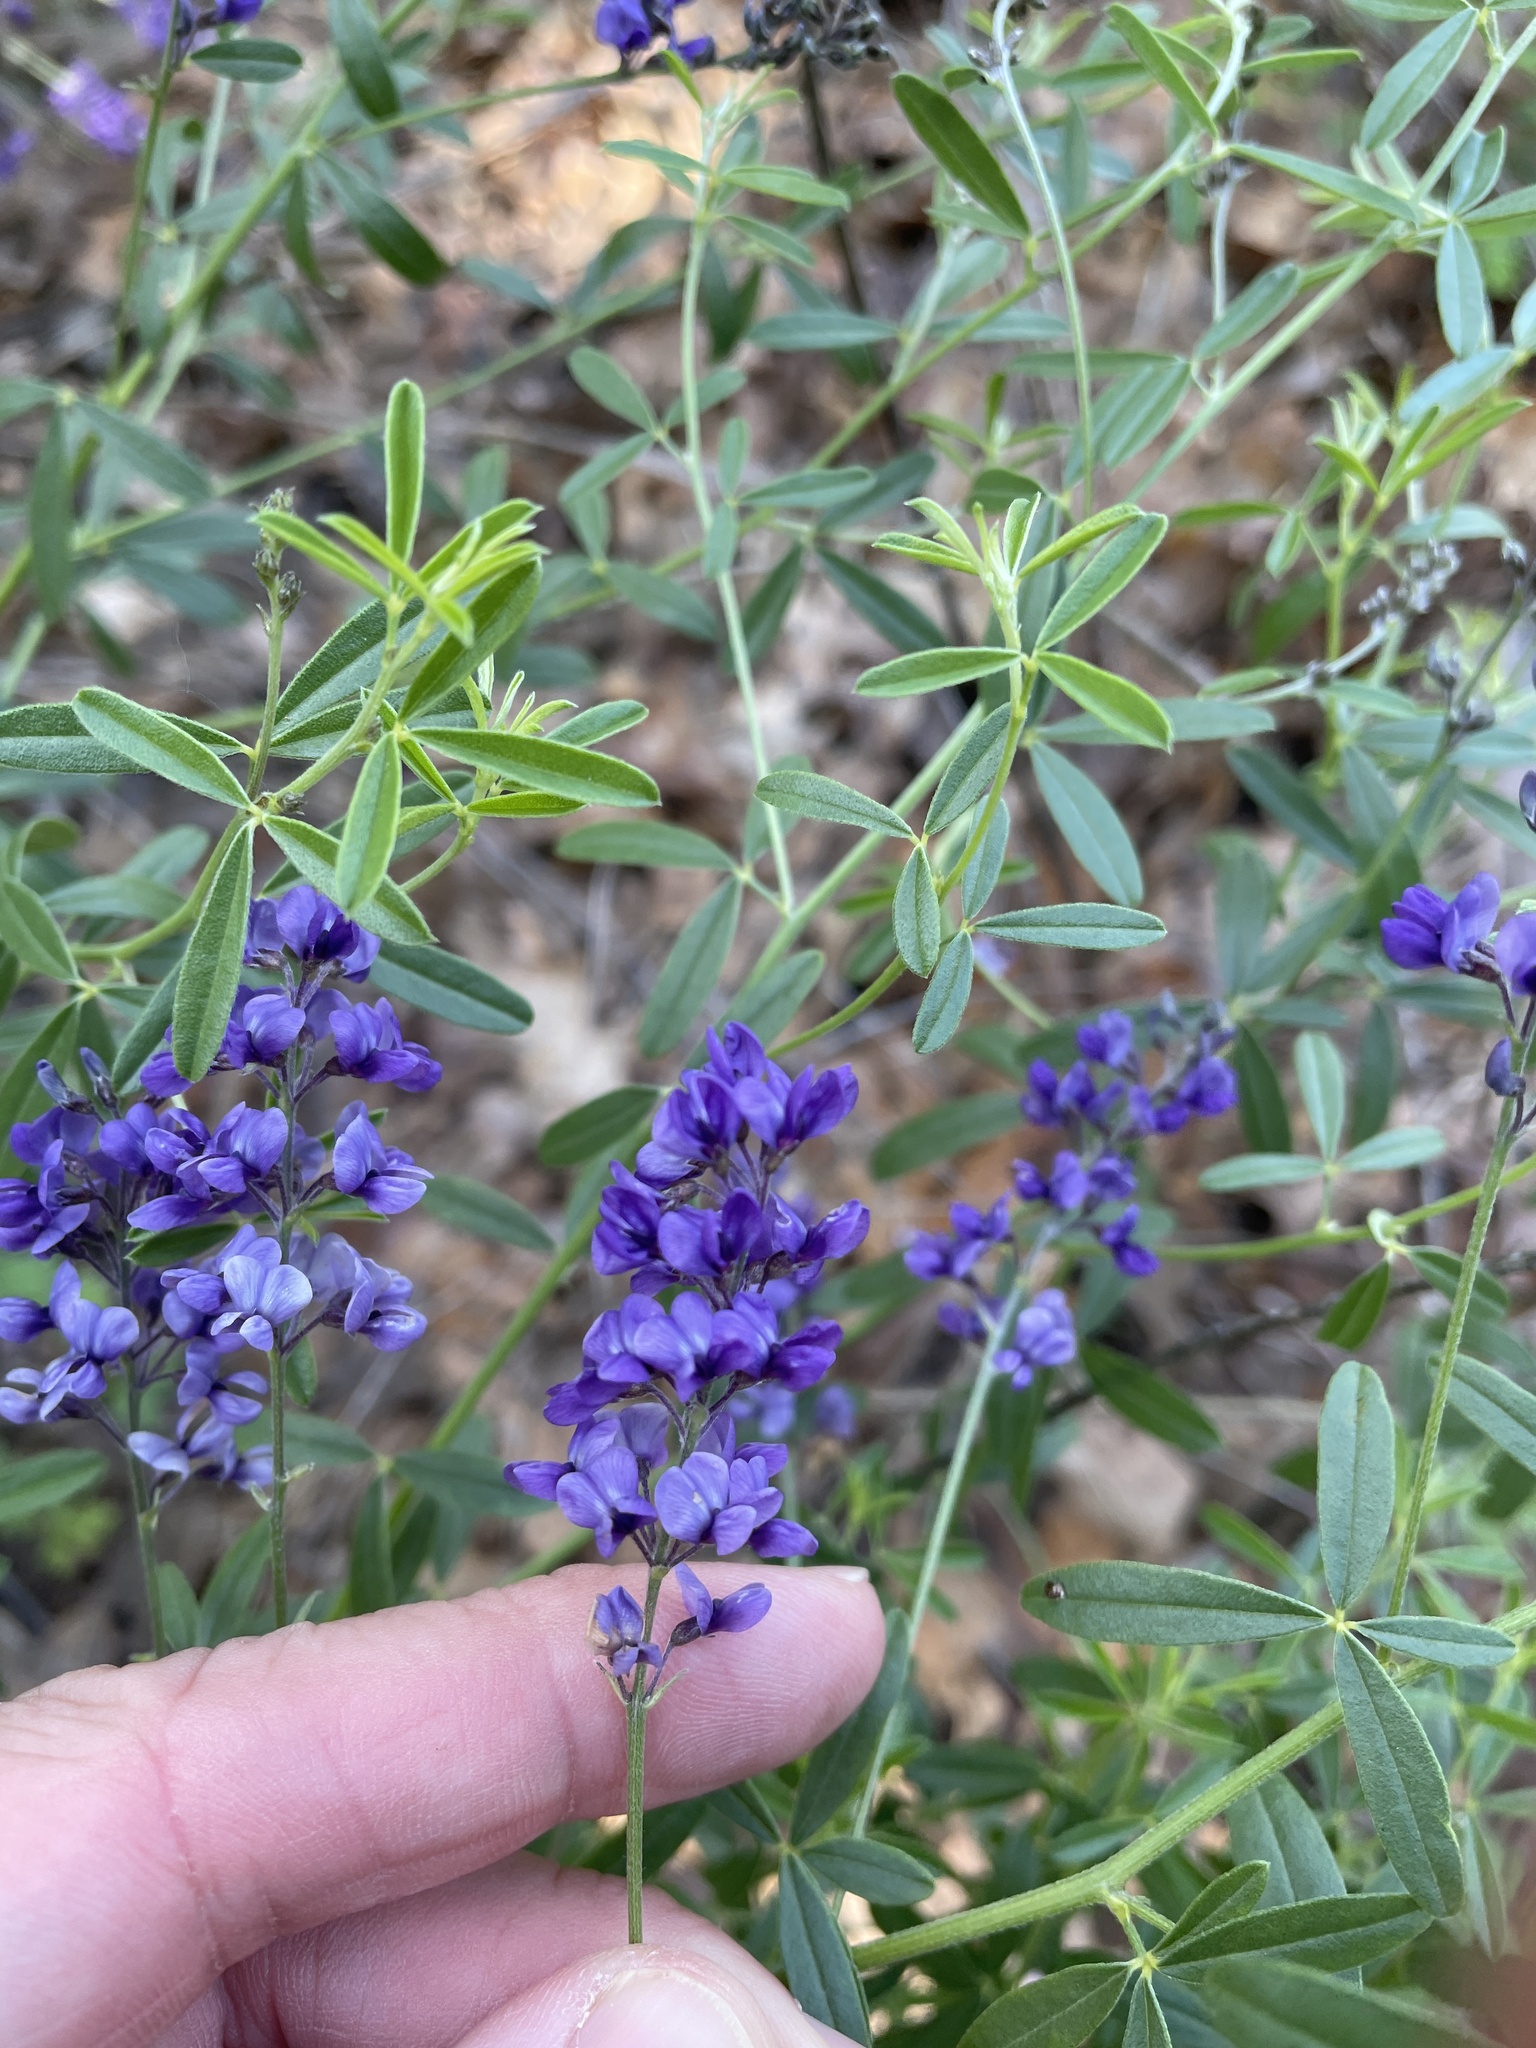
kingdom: Plantae
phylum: Tracheophyta
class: Magnoliopsida
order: Fabales
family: Fabaceae
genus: Pediomelum
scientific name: Pediomelum tenuiflorum
